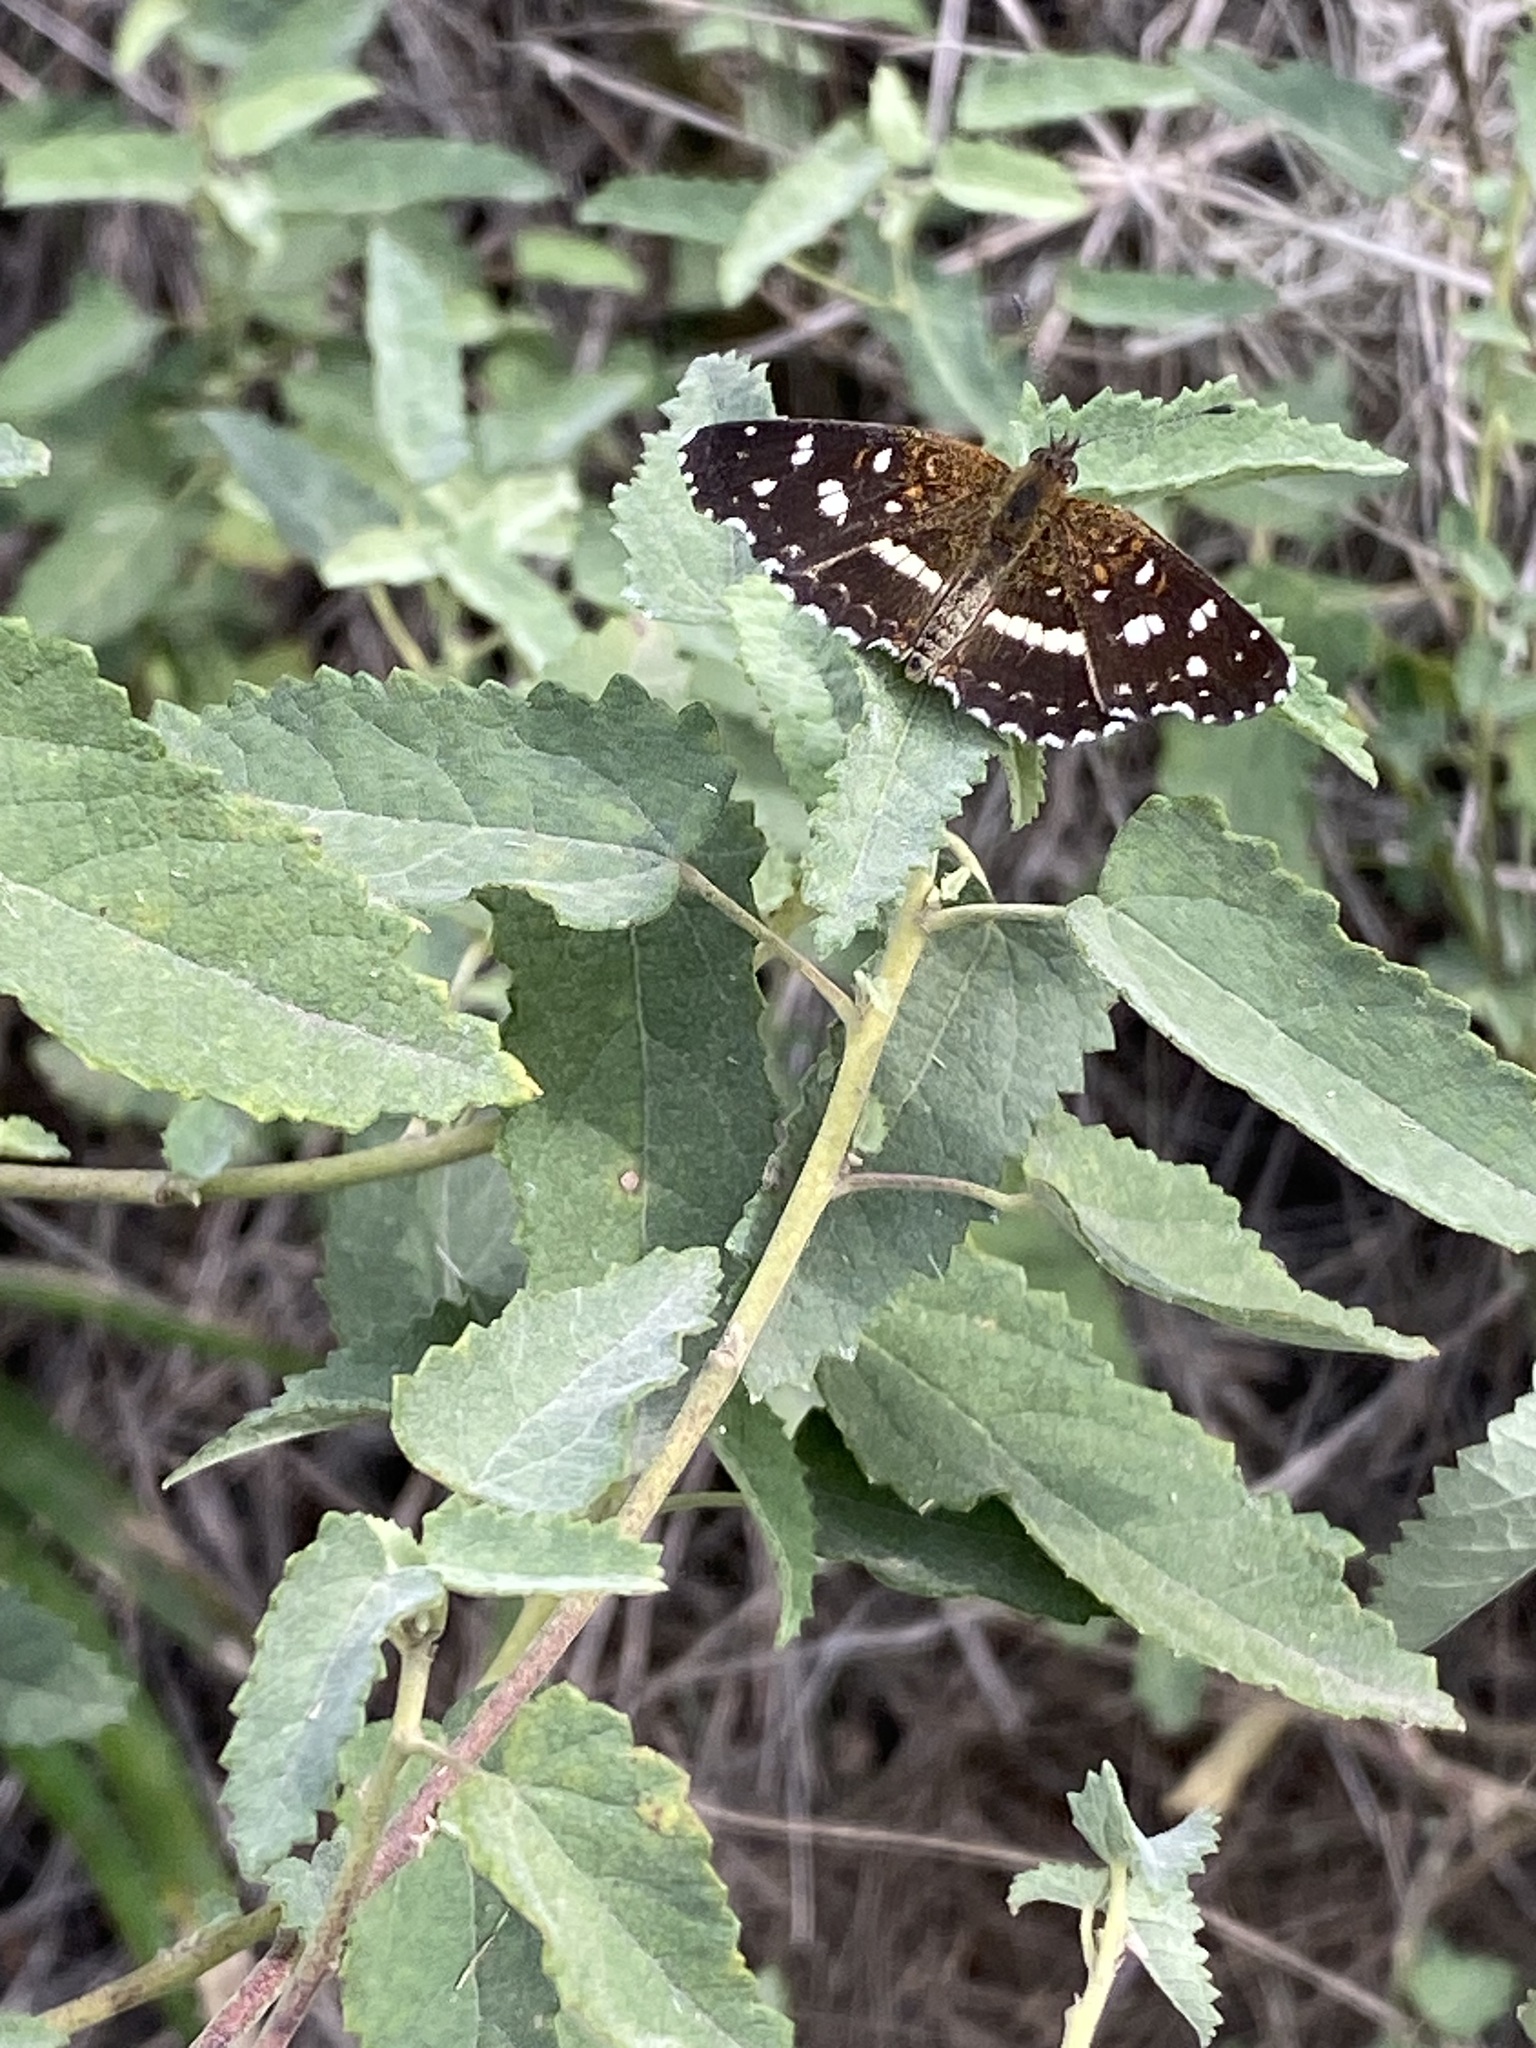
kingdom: Animalia
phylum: Arthropoda
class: Insecta
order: Lepidoptera
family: Nymphalidae
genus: Ortilia
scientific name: Ortilia ithra
